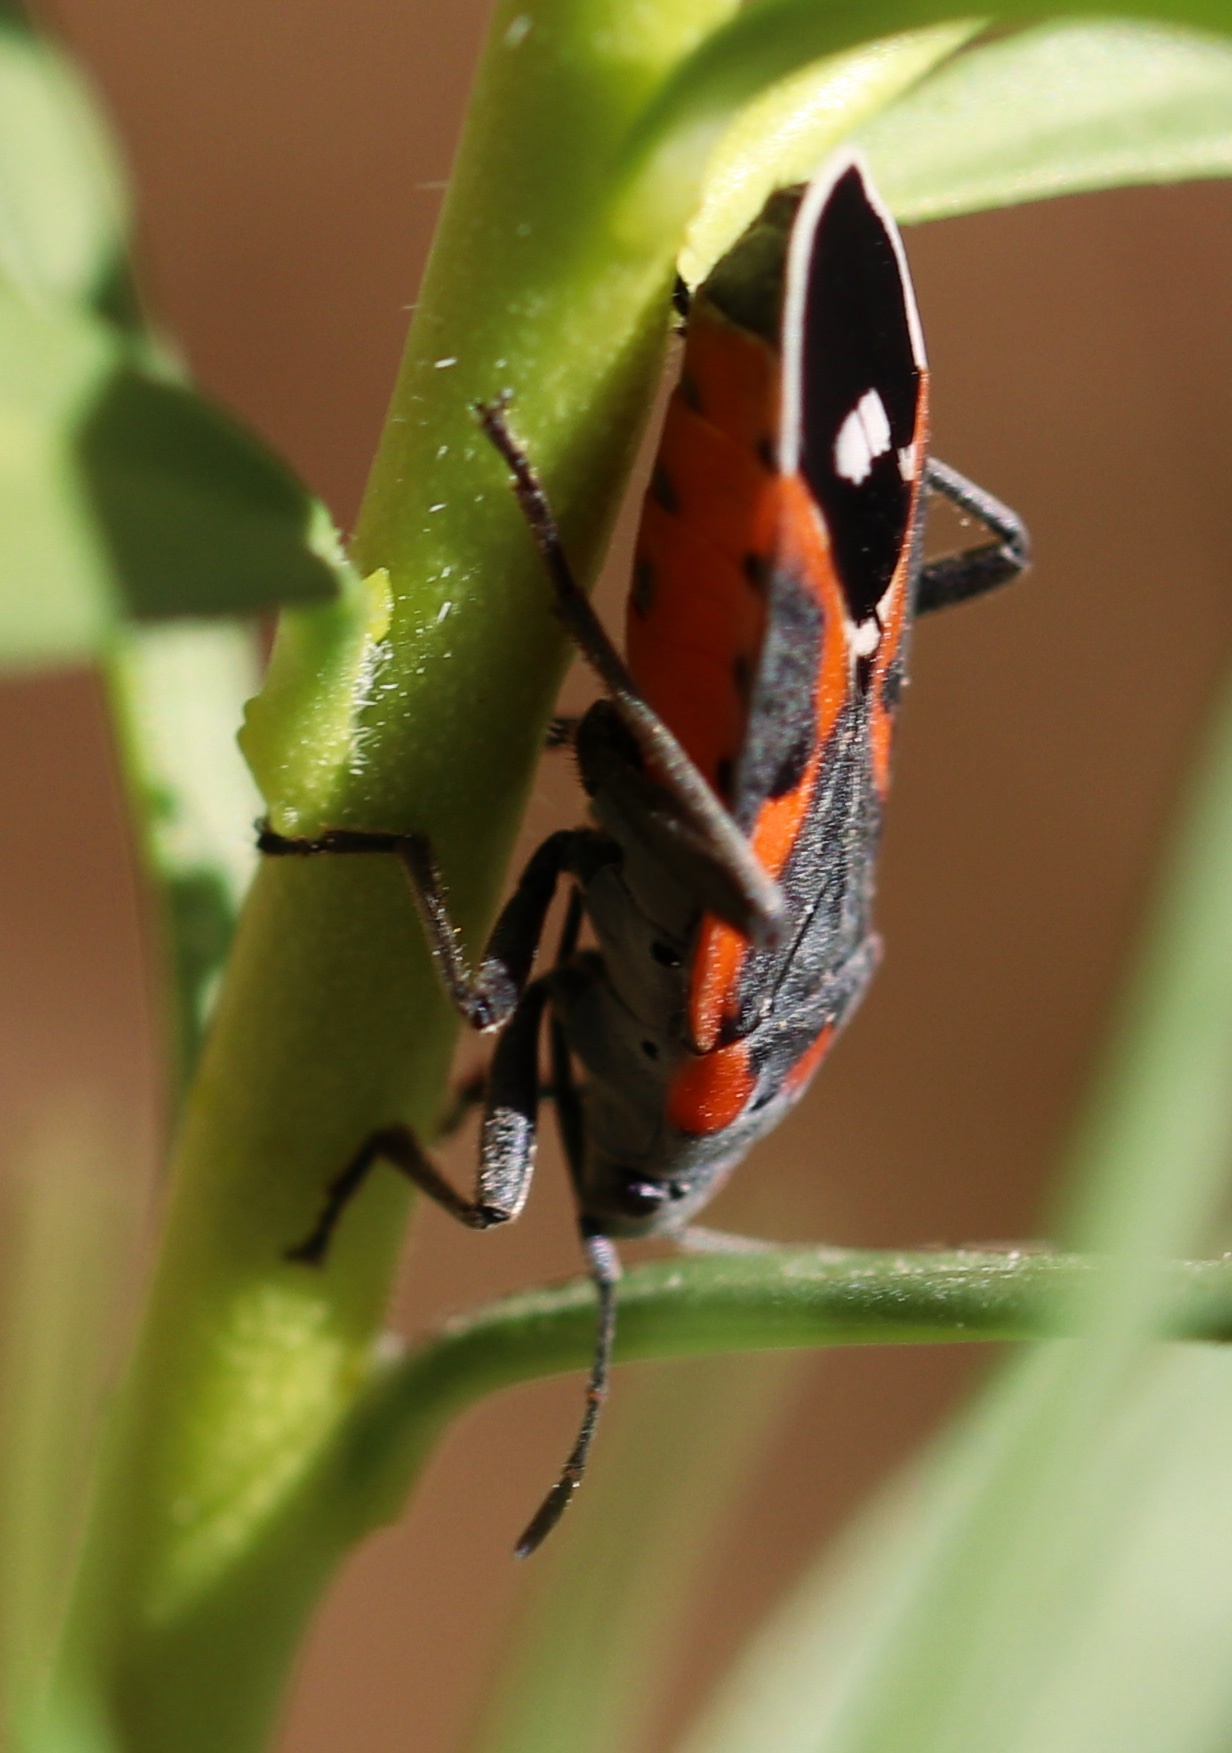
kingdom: Animalia
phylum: Arthropoda
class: Insecta
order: Hemiptera
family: Lygaeidae
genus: Lygaeus
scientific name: Lygaeus kalmii
